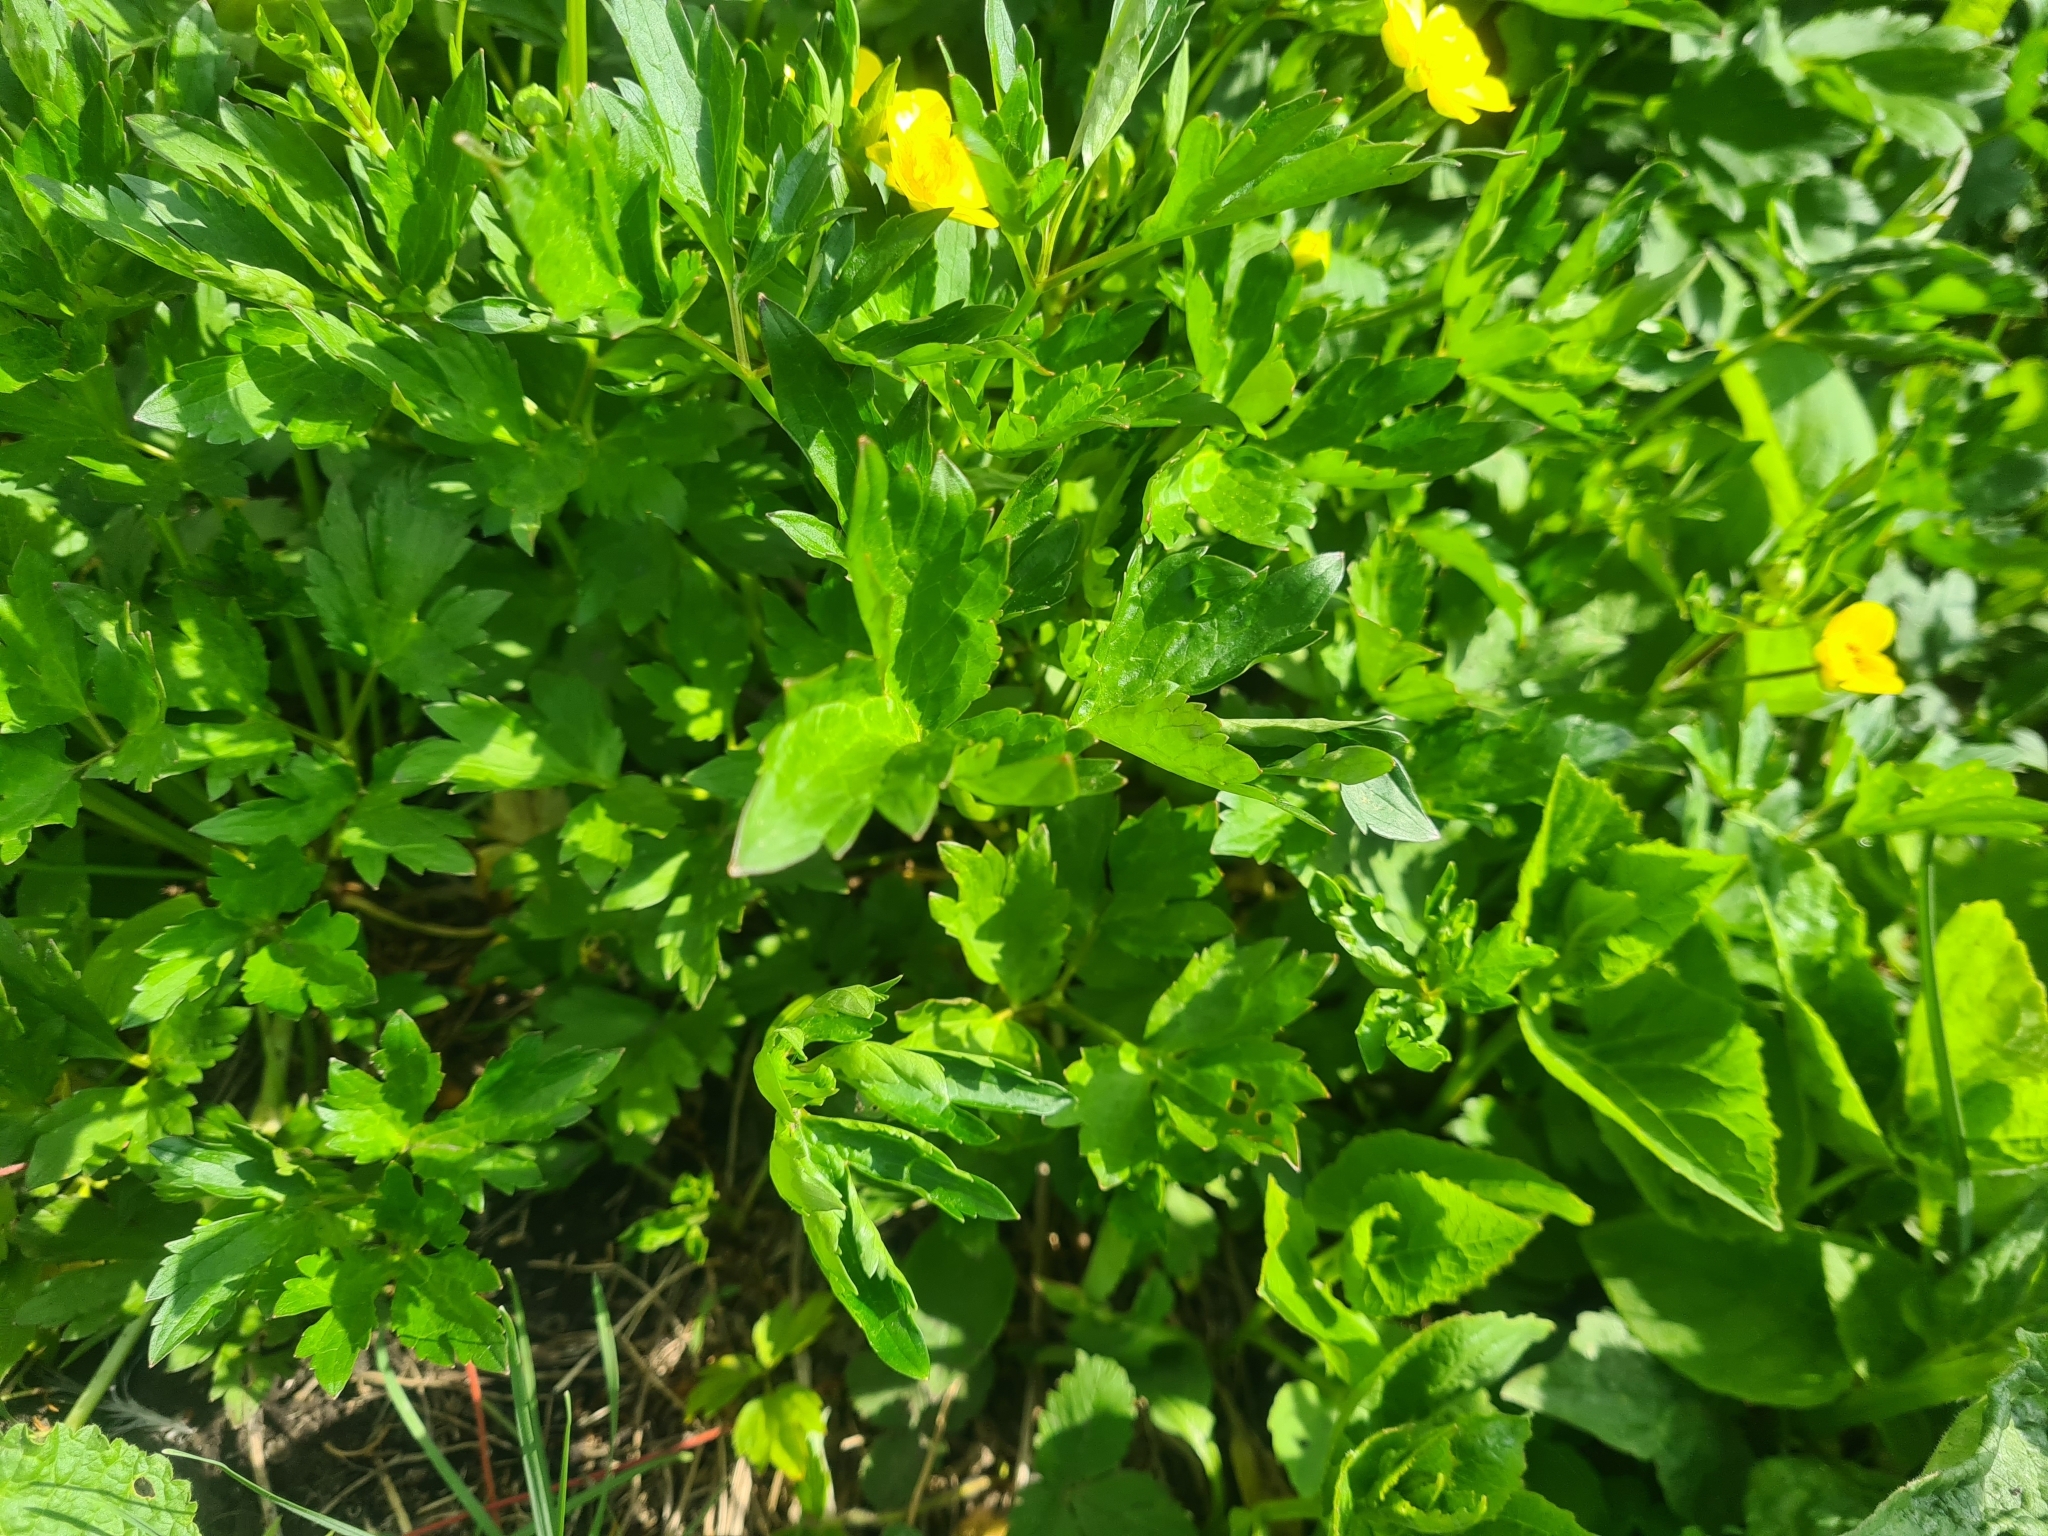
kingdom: Plantae
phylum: Tracheophyta
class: Magnoliopsida
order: Ranunculales
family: Ranunculaceae
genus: Ranunculus
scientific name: Ranunculus repens
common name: Creeping buttercup
